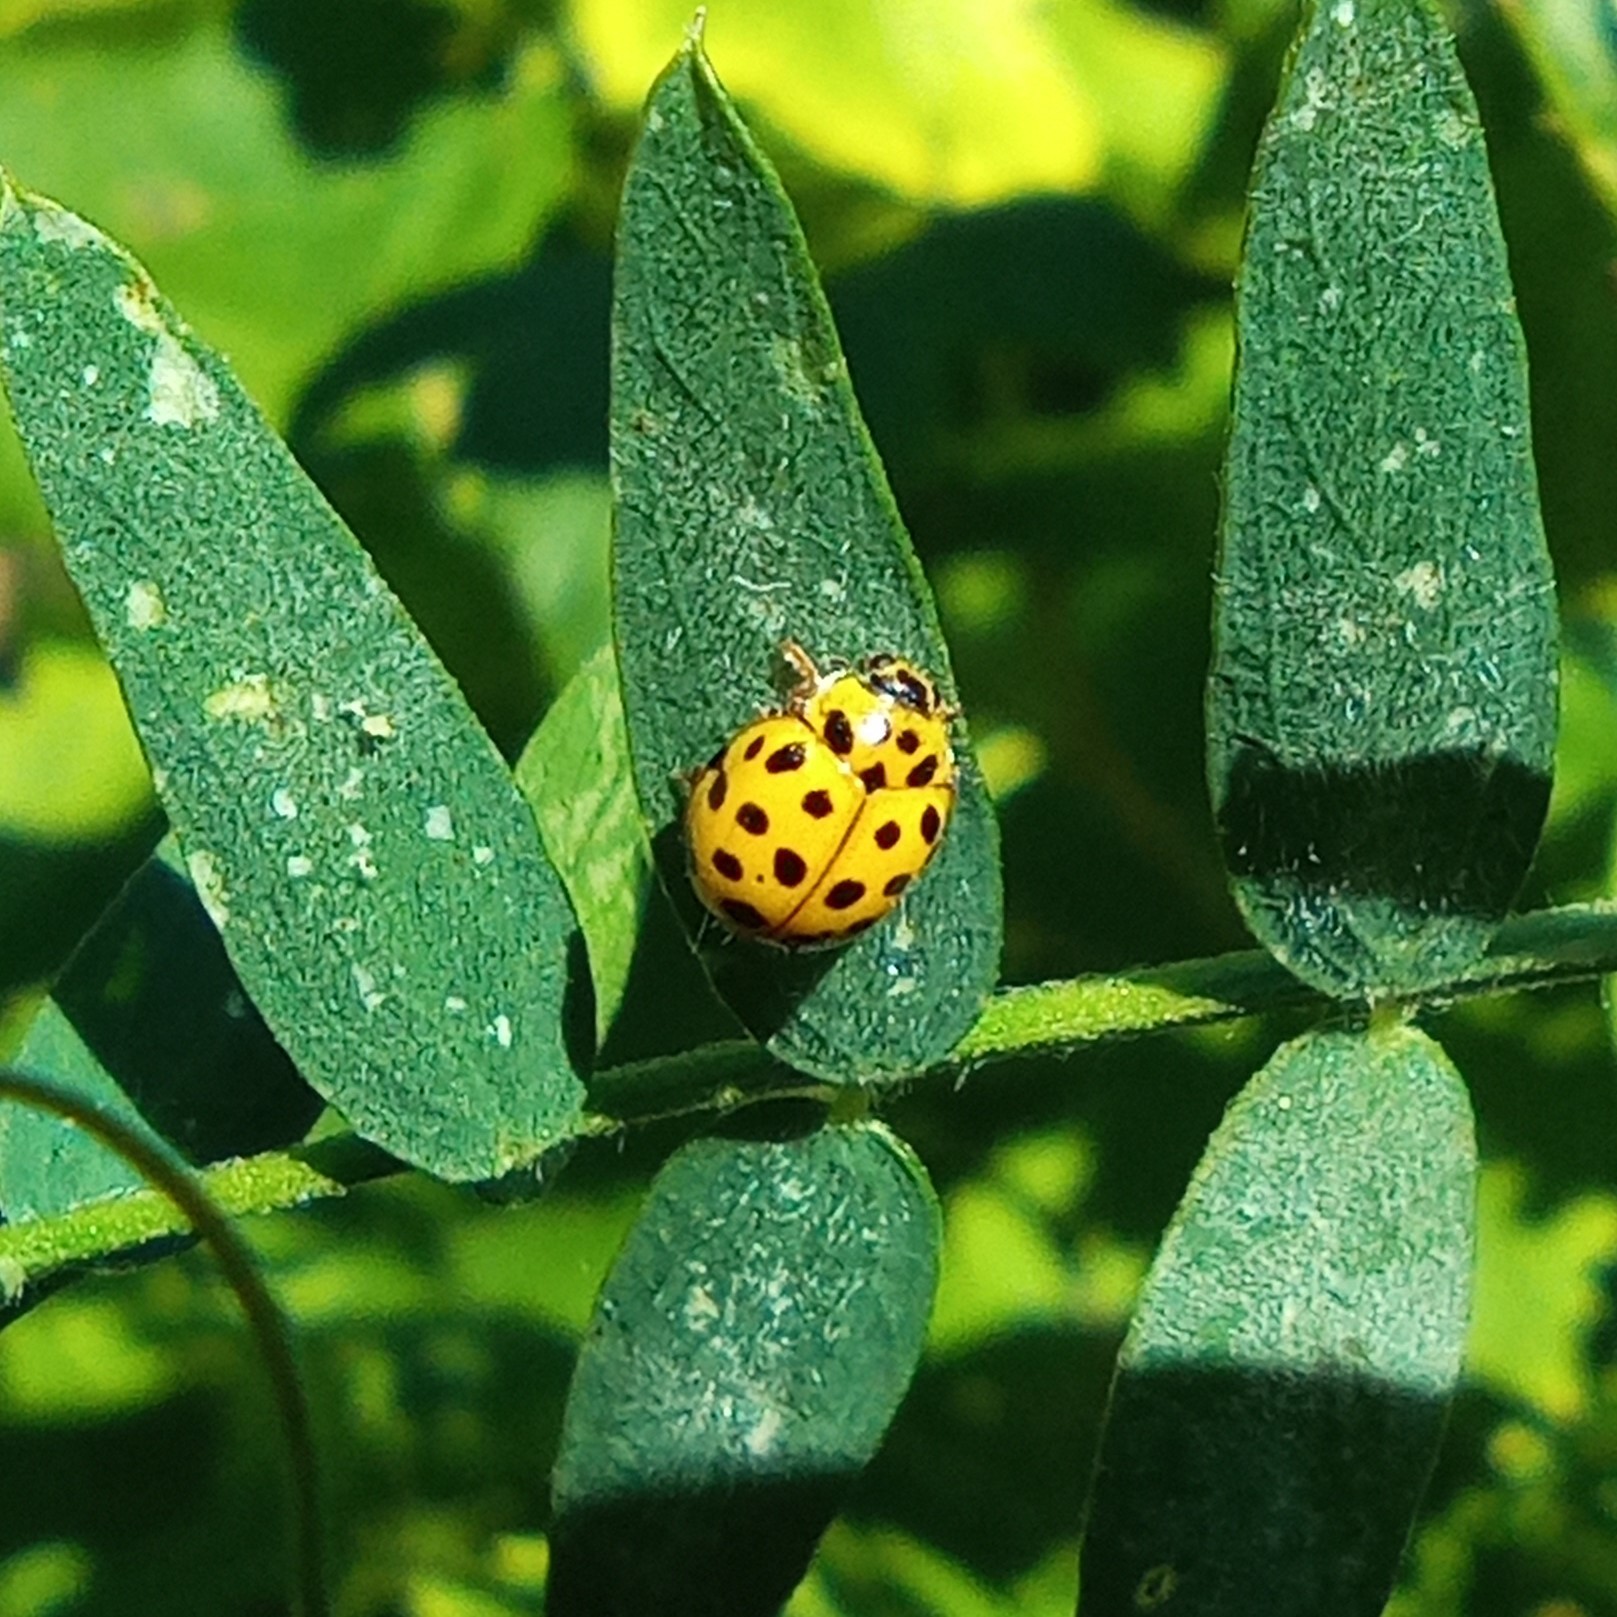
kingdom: Animalia
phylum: Arthropoda
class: Insecta
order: Coleoptera
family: Coccinellidae
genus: Psyllobora
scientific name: Psyllobora vigintiduopunctata
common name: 22-spot ladybird
